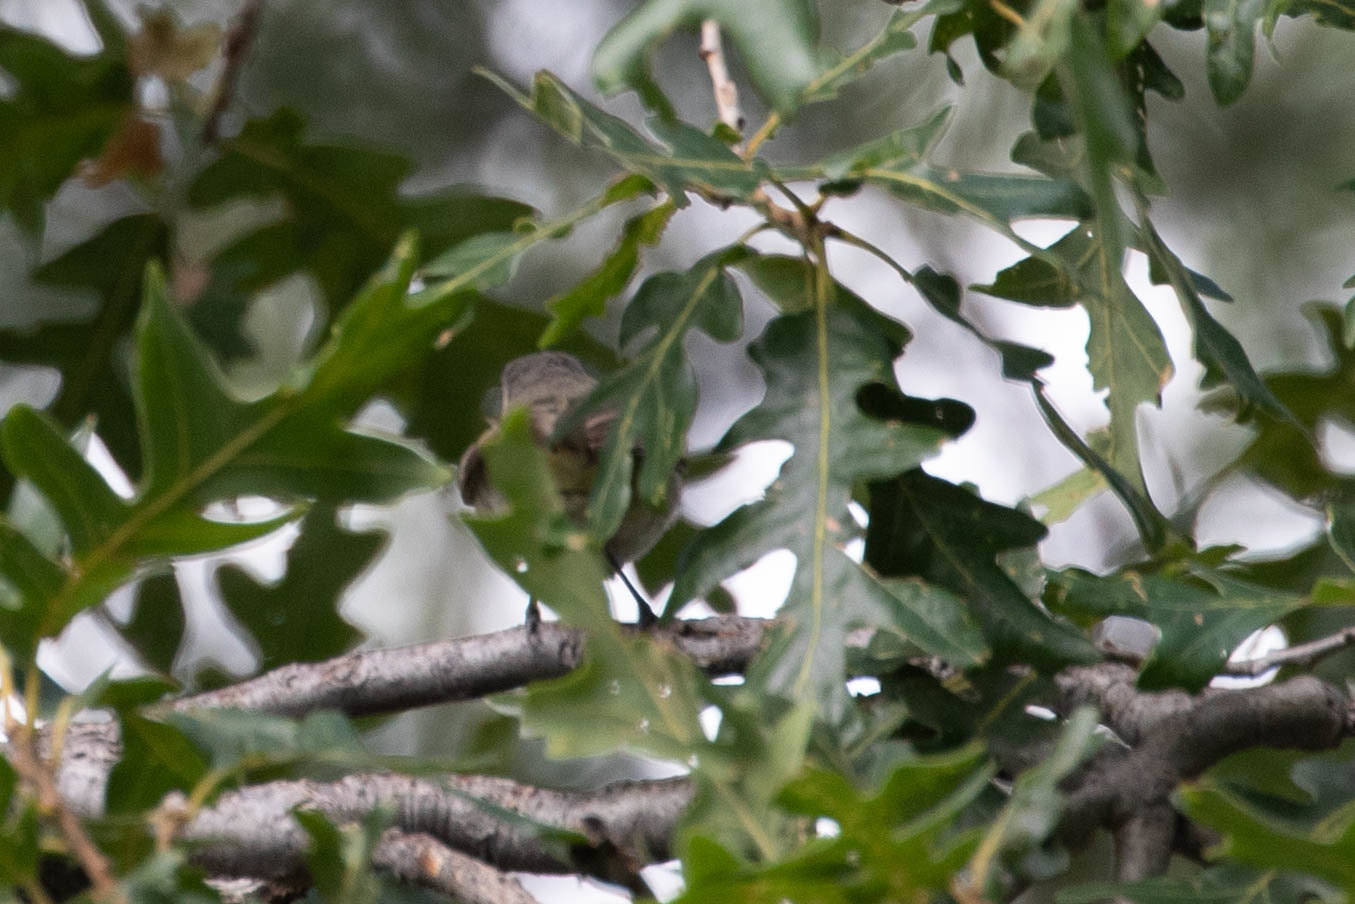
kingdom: Animalia
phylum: Chordata
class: Aves
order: Passeriformes
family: Vireonidae
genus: Vireo
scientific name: Vireo gilvus
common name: Warbling vireo
